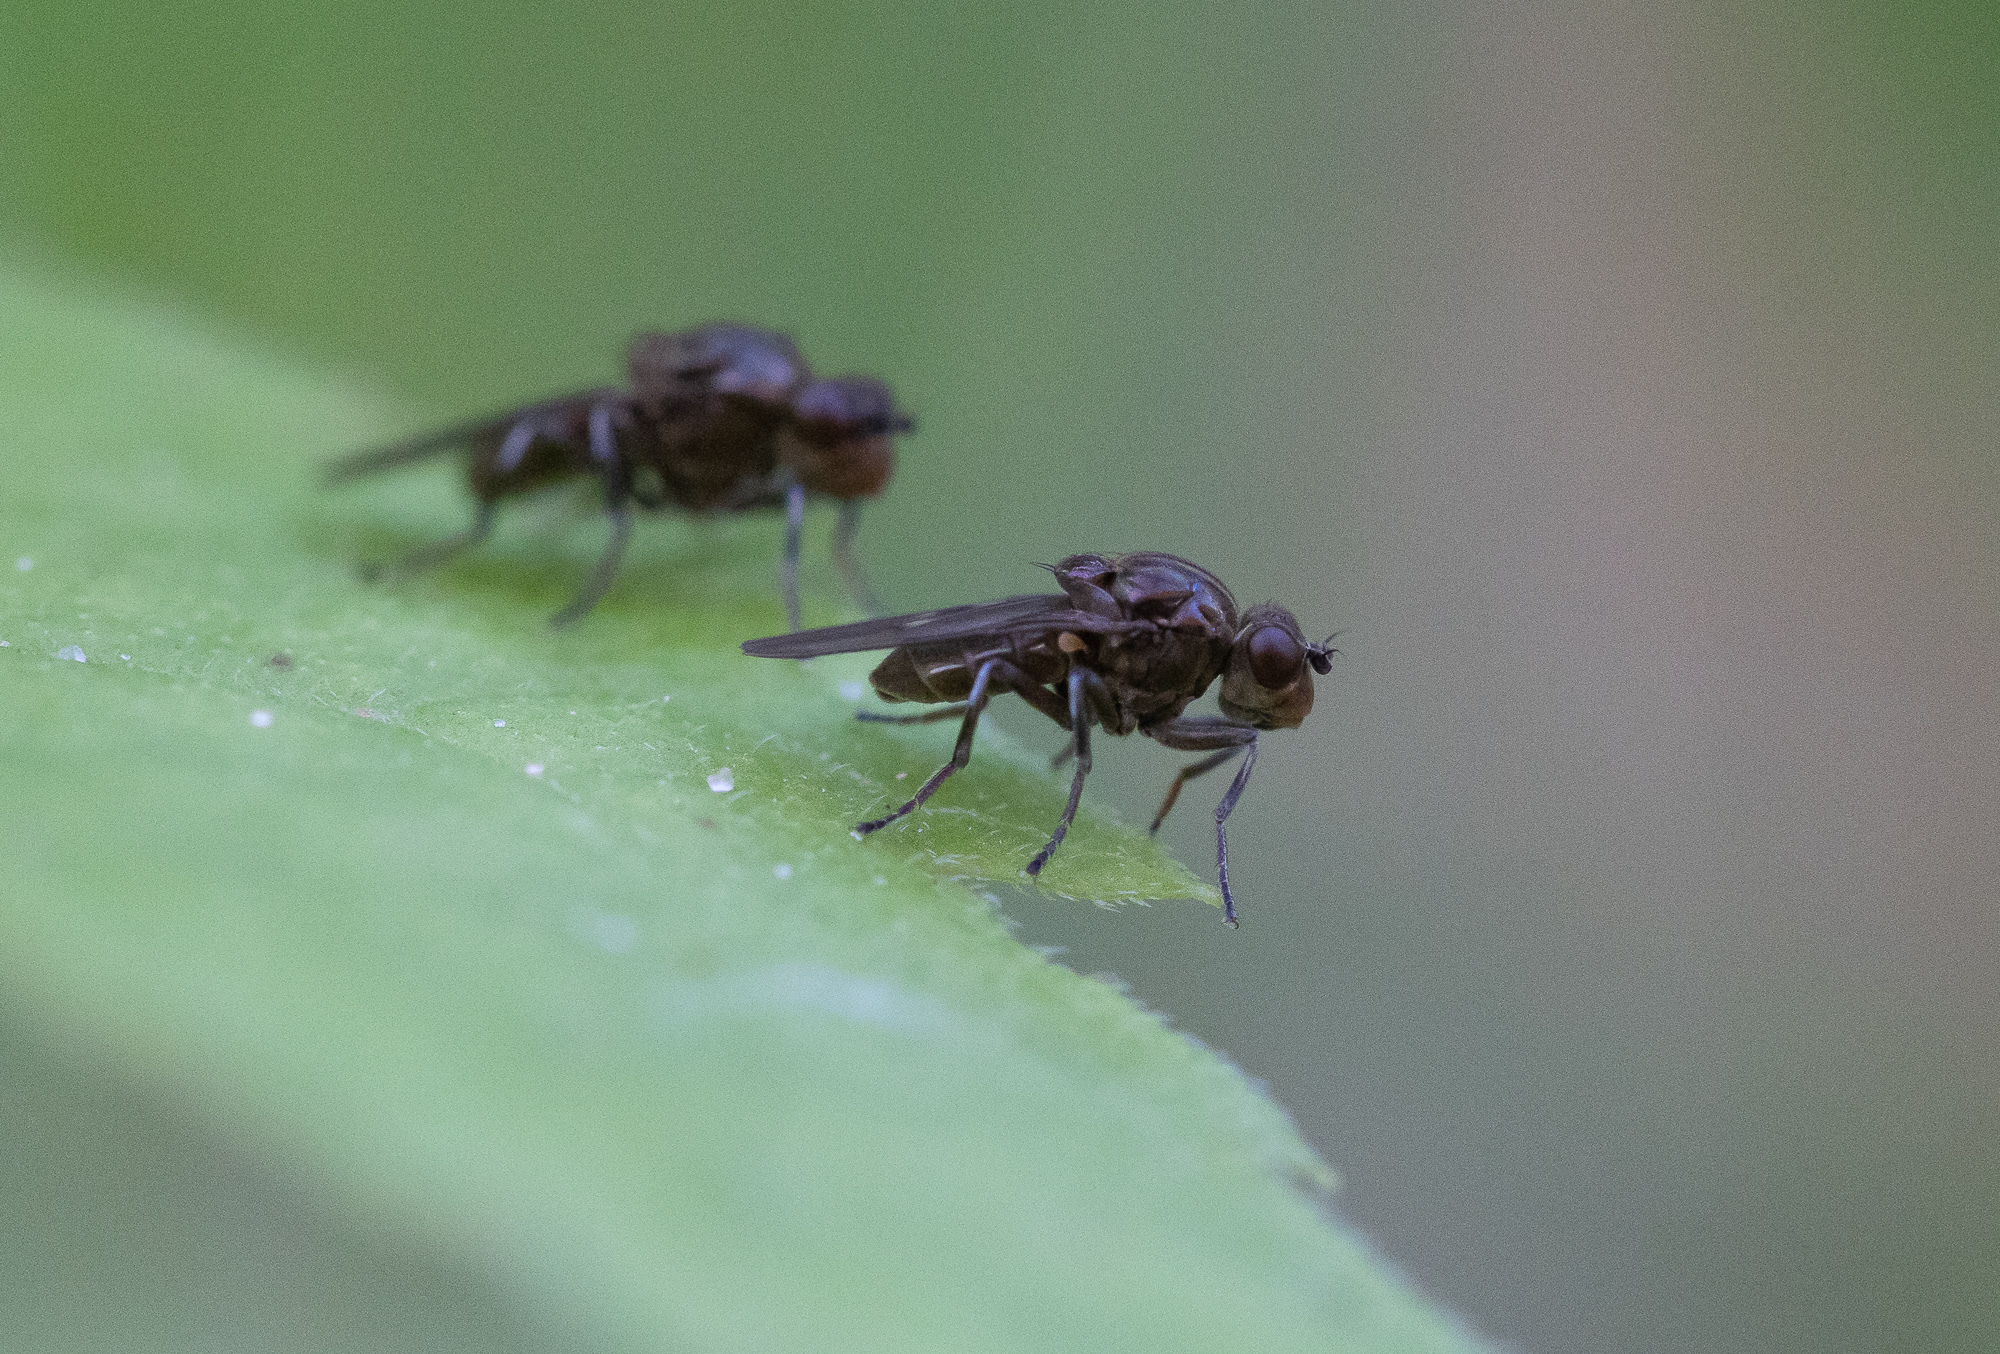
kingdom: Animalia
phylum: Arthropoda
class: Insecta
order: Diptera
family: Ephydridae
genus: Parydra
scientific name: Parydra aquila
